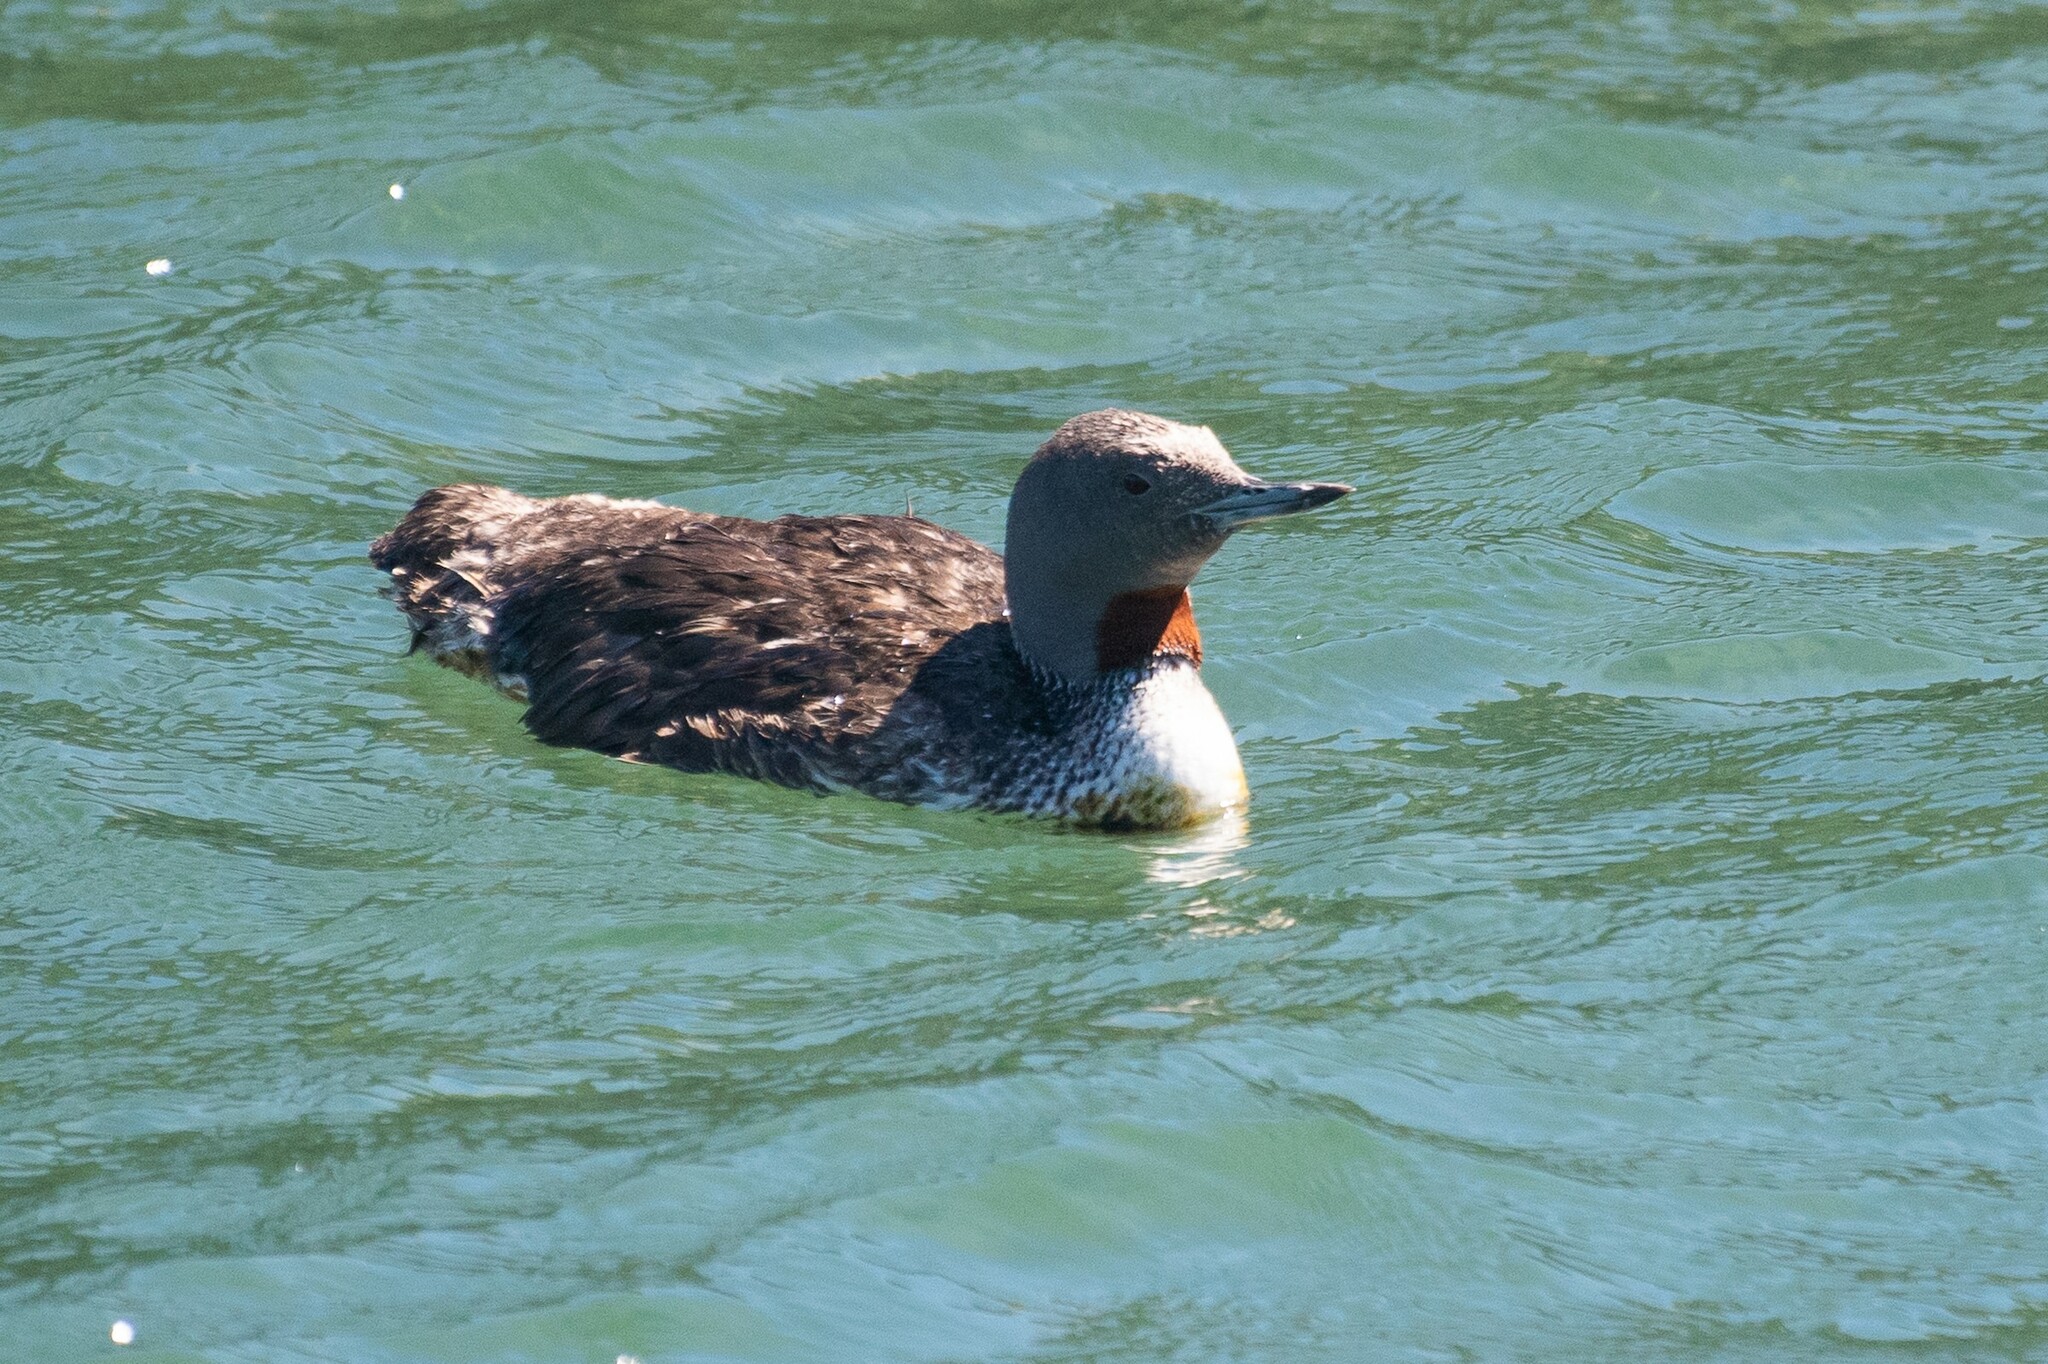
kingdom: Animalia
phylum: Chordata
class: Aves
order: Gaviiformes
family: Gaviidae
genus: Gavia
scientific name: Gavia stellata
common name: Red-throated loon
